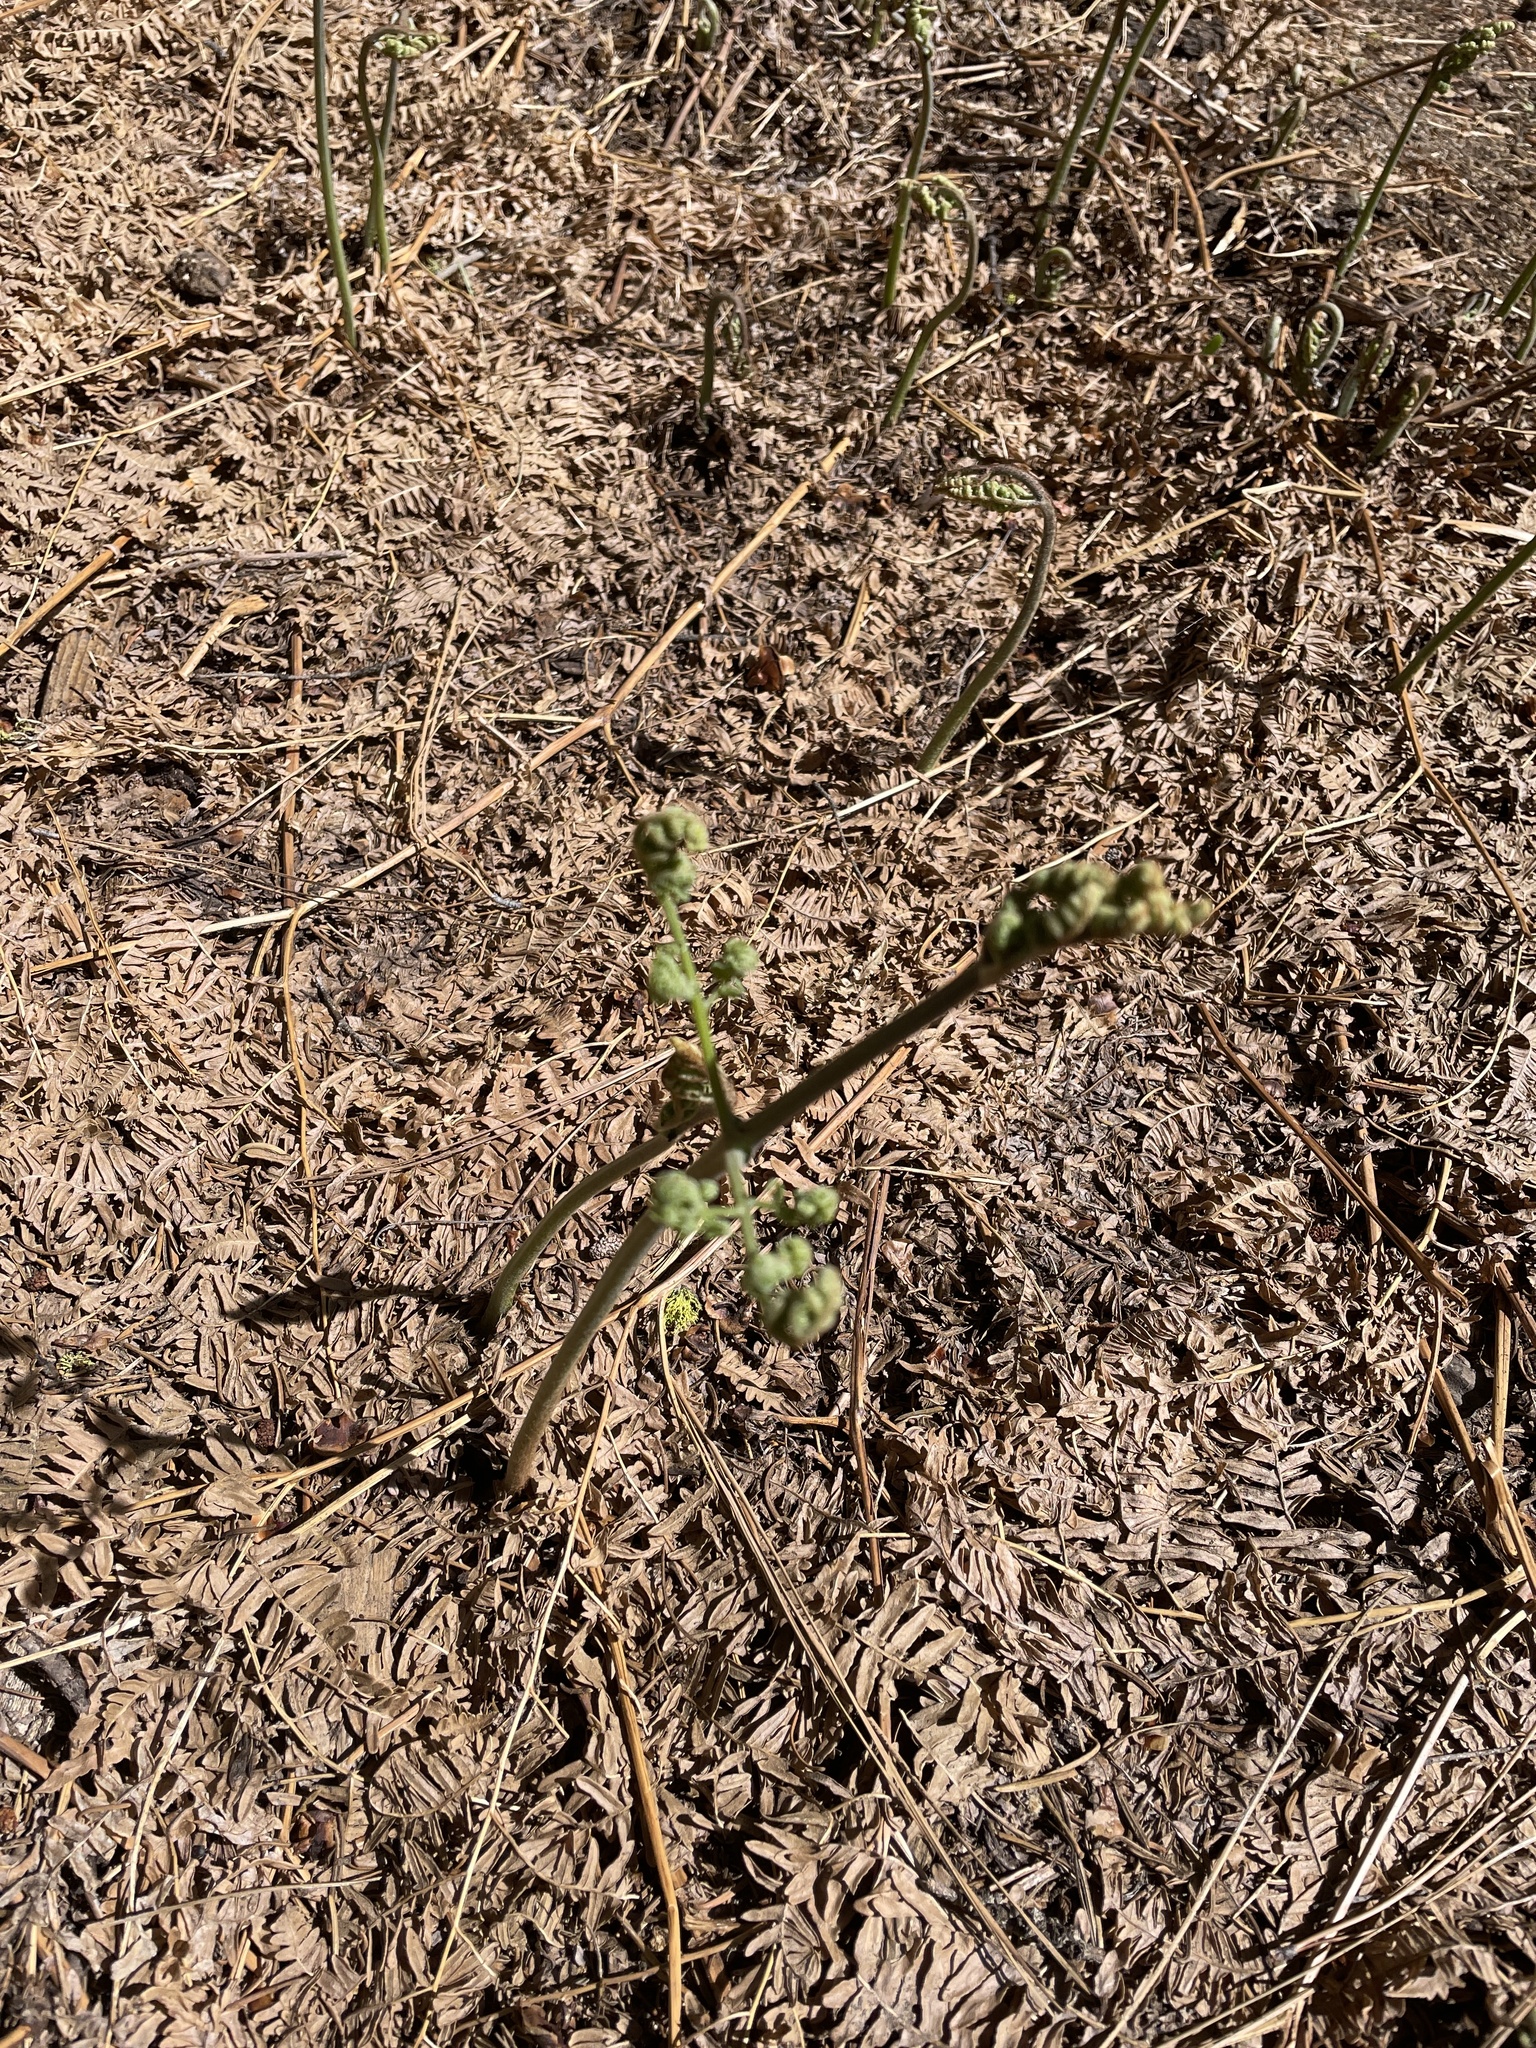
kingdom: Plantae
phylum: Tracheophyta
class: Polypodiopsida
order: Polypodiales
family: Dennstaedtiaceae
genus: Pteridium
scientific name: Pteridium aquilinum
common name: Bracken
